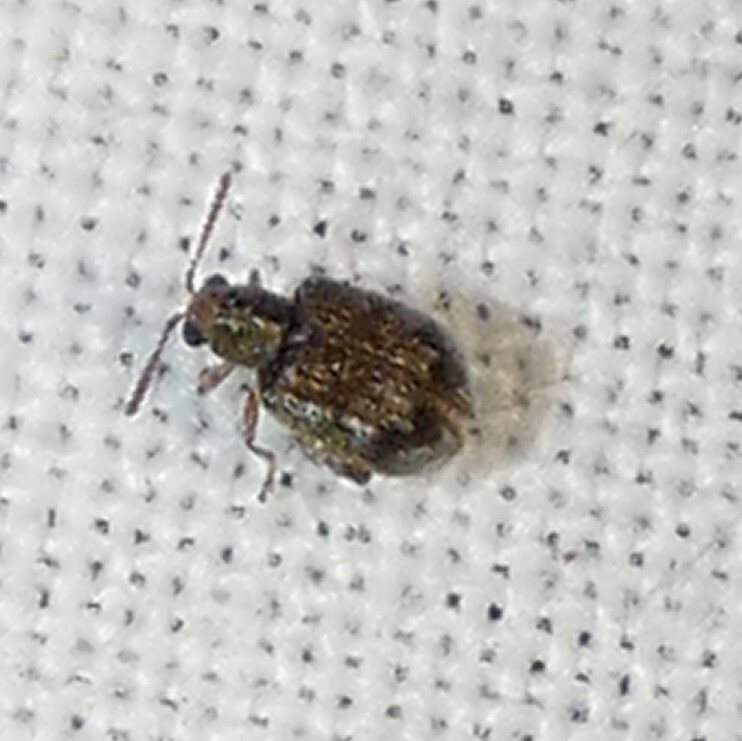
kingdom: Animalia
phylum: Arthropoda
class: Insecta
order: Coleoptera
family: Chrysomelidae
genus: Pseudolampis
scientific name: Pseudolampis guttata
